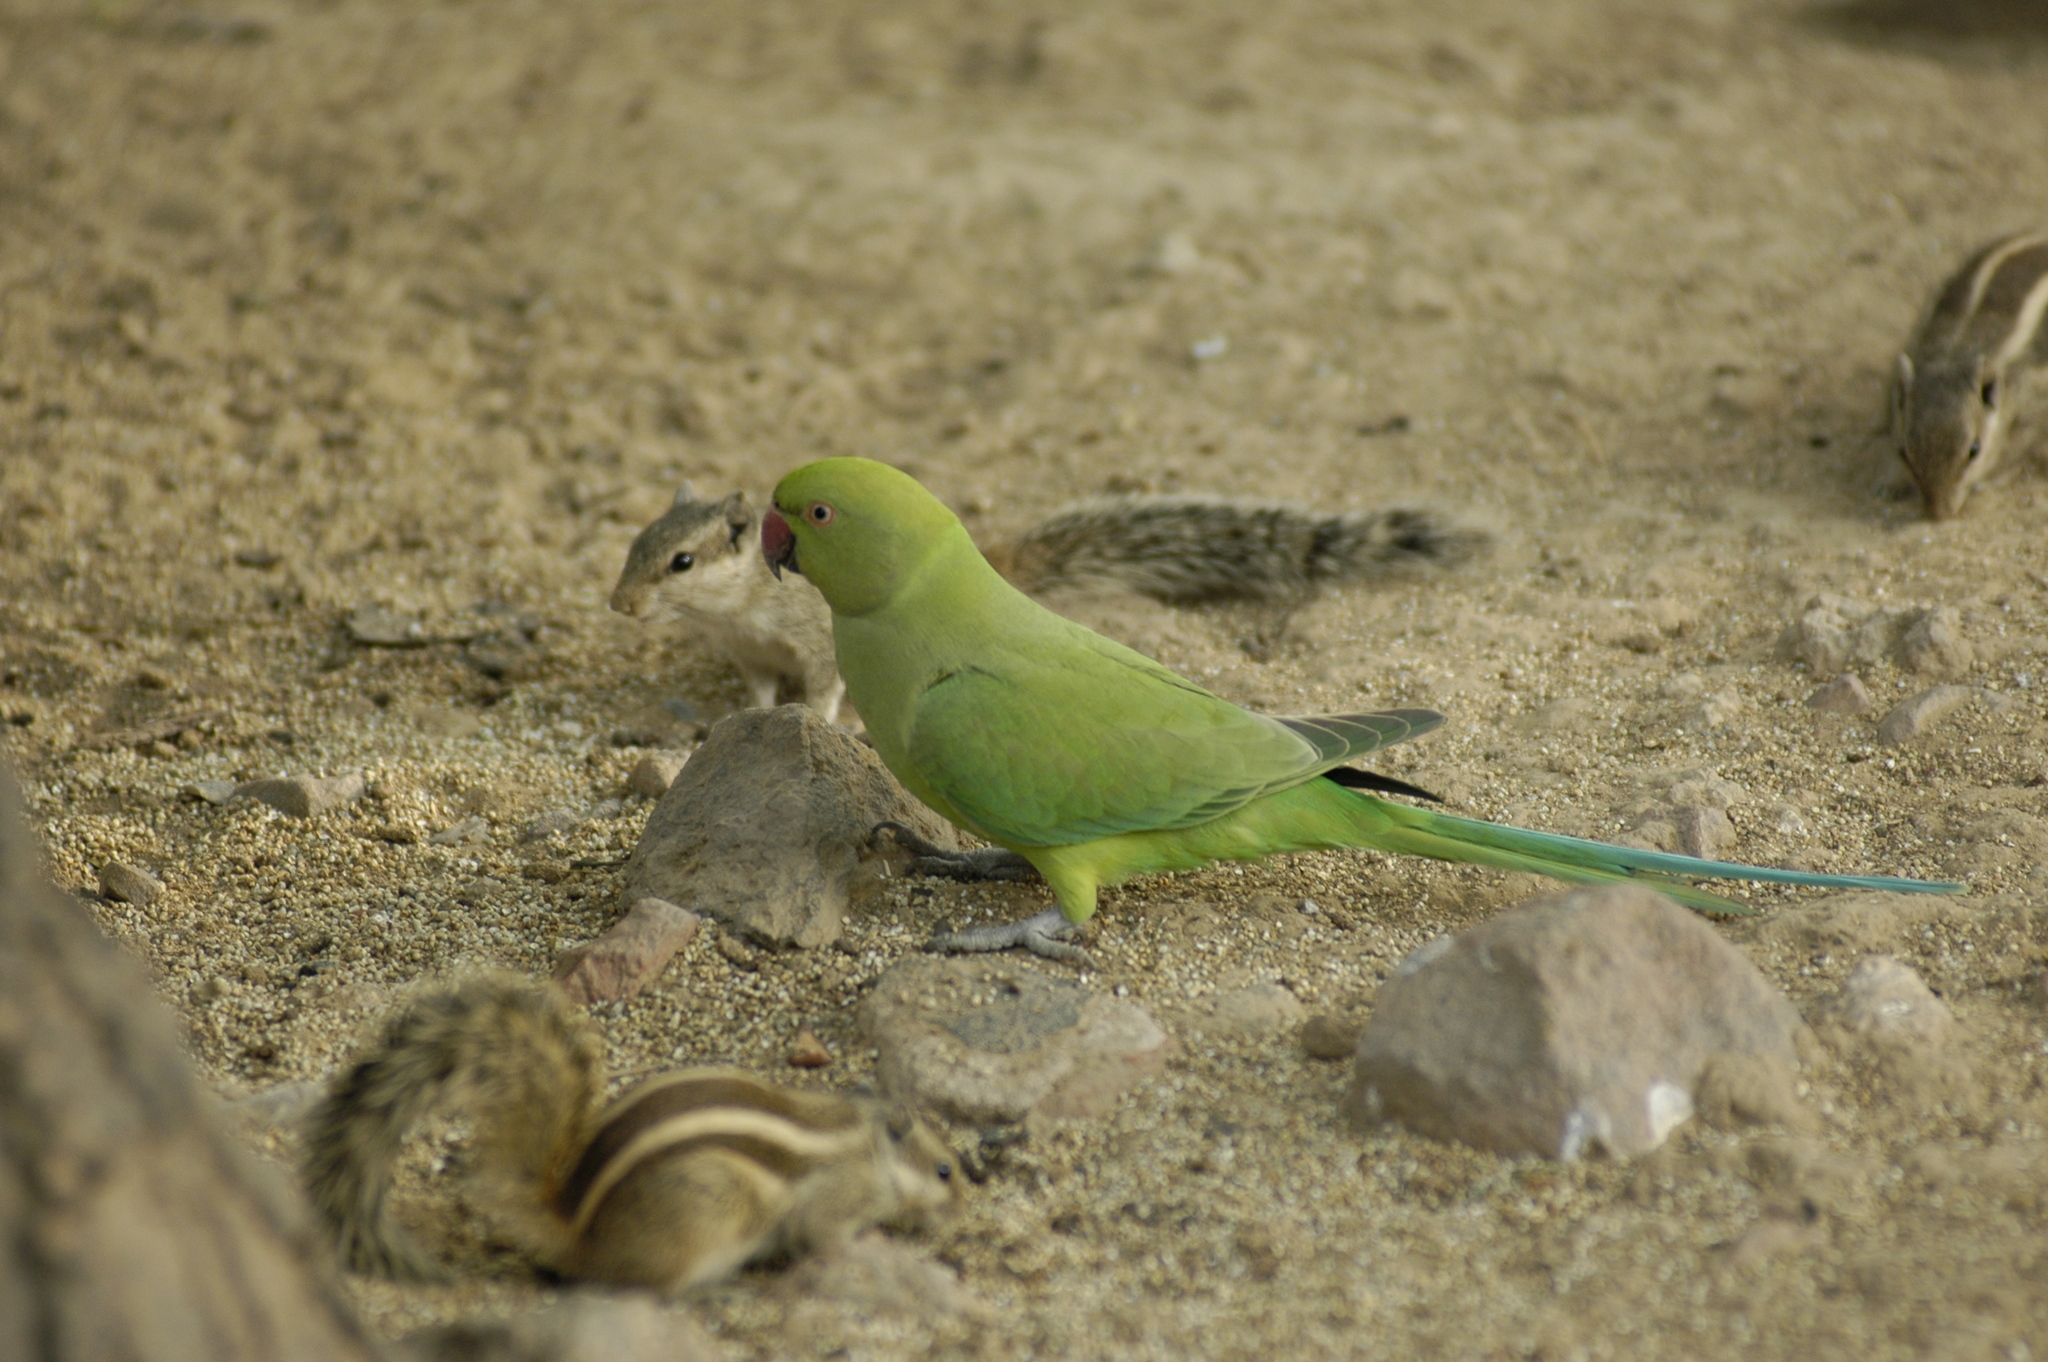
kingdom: Animalia
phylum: Chordata
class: Aves
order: Psittaciformes
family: Psittacidae
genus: Psittacula
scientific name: Psittacula krameri
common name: Rose-ringed parakeet
